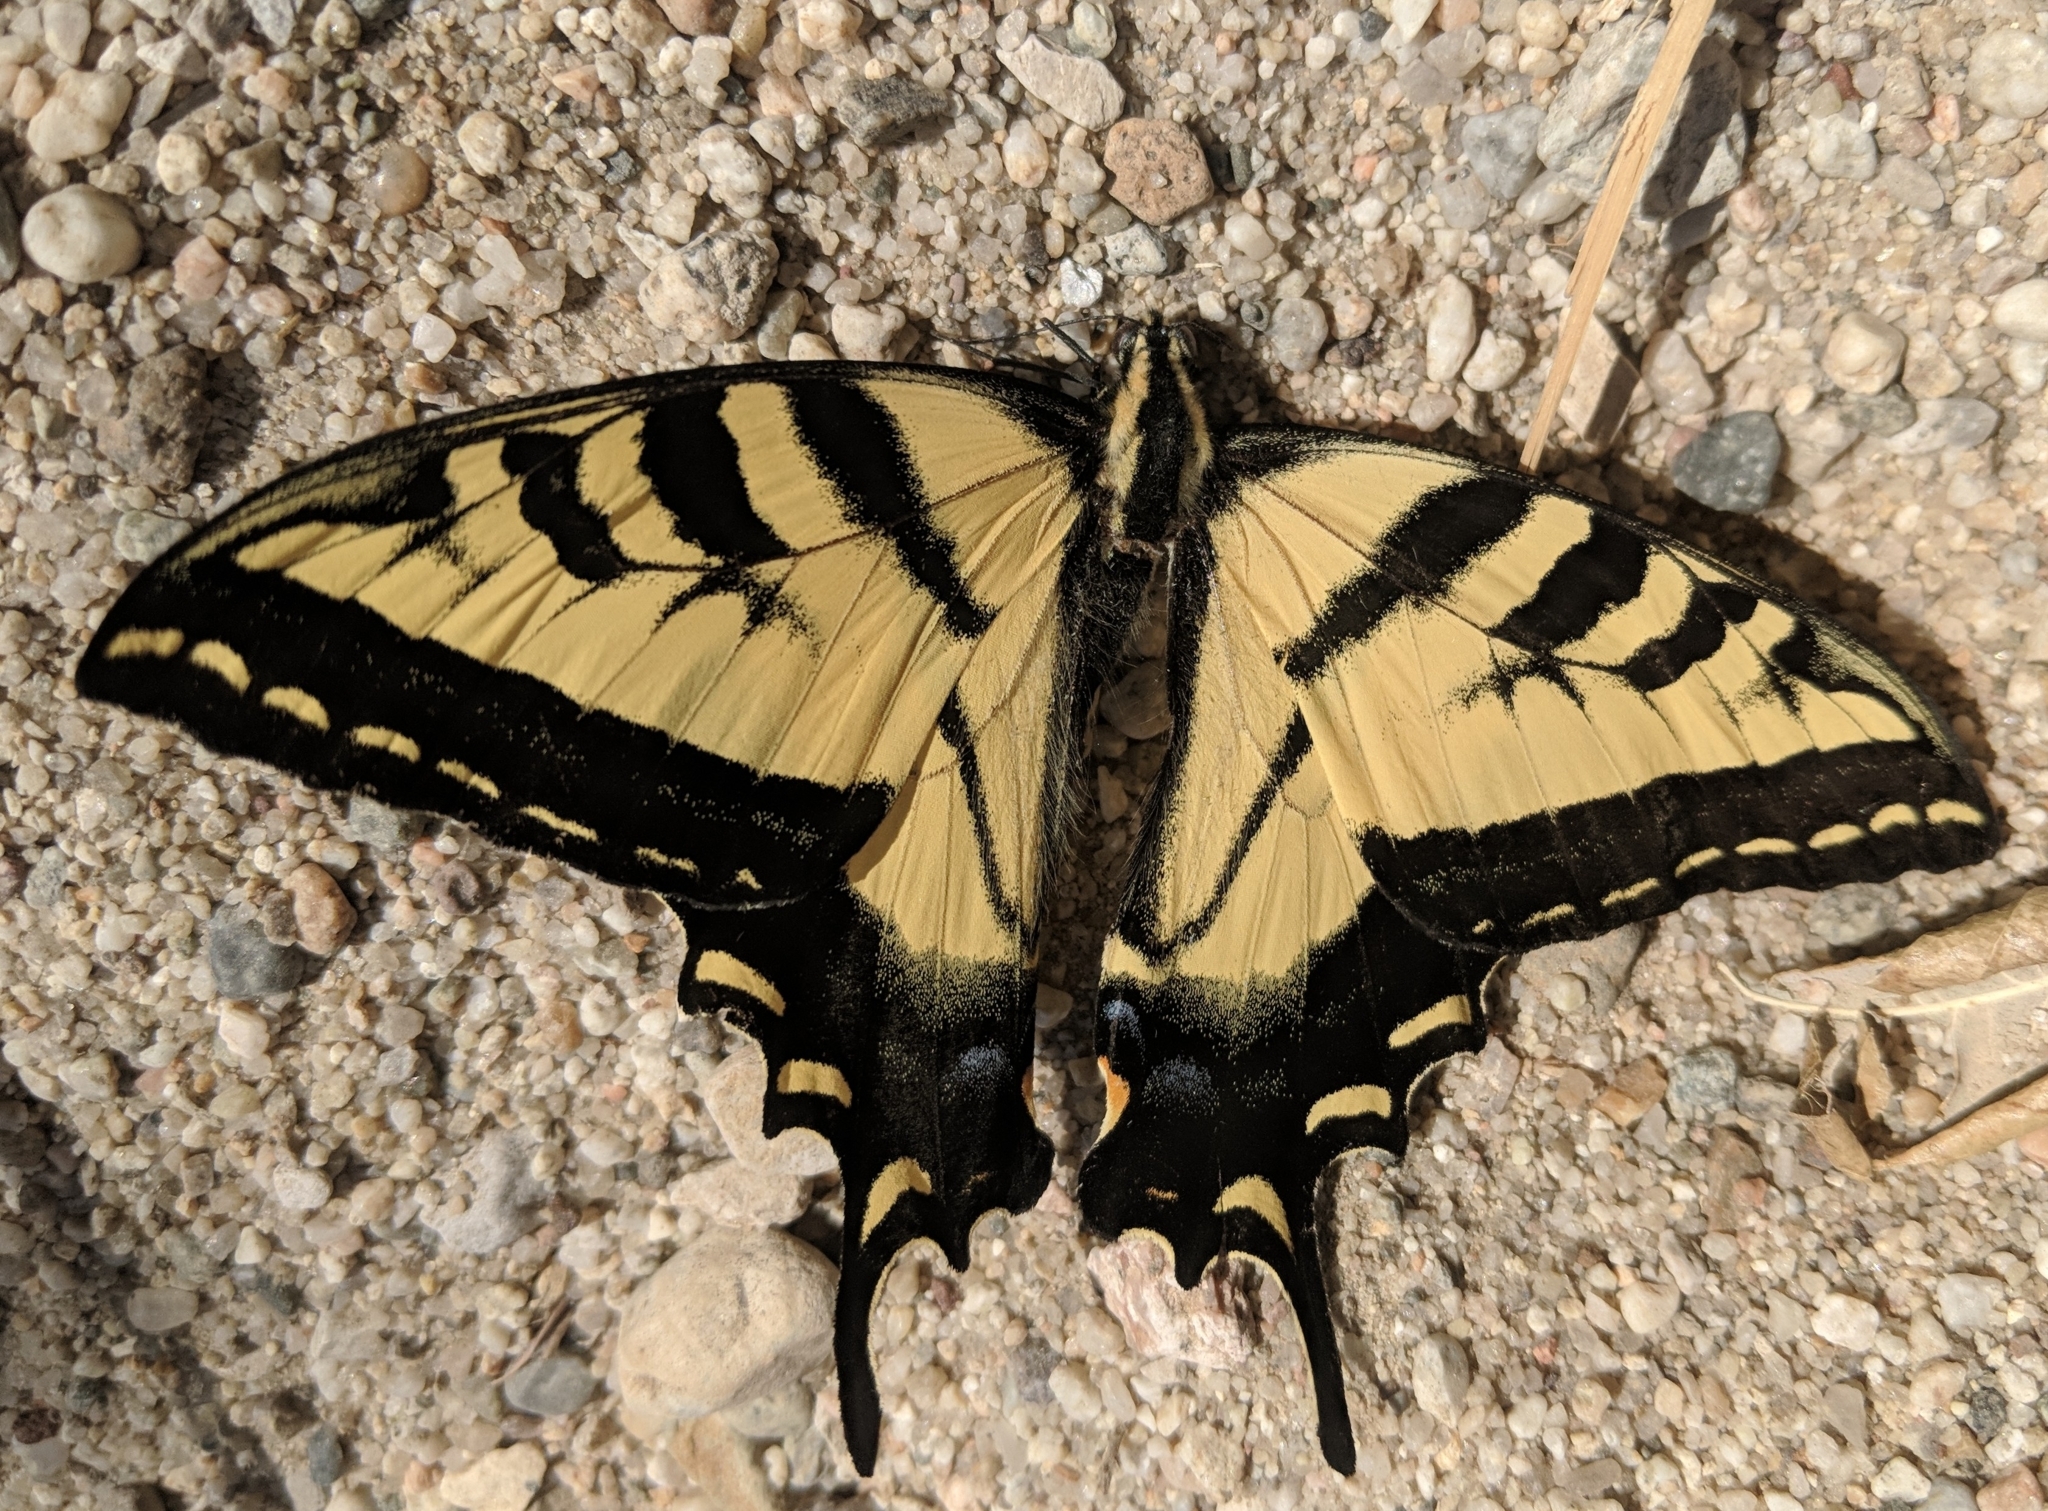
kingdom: Animalia
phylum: Arthropoda
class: Insecta
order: Lepidoptera
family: Papilionidae
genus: Papilio
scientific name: Papilio rutulus
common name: Western tiger swallowtail
